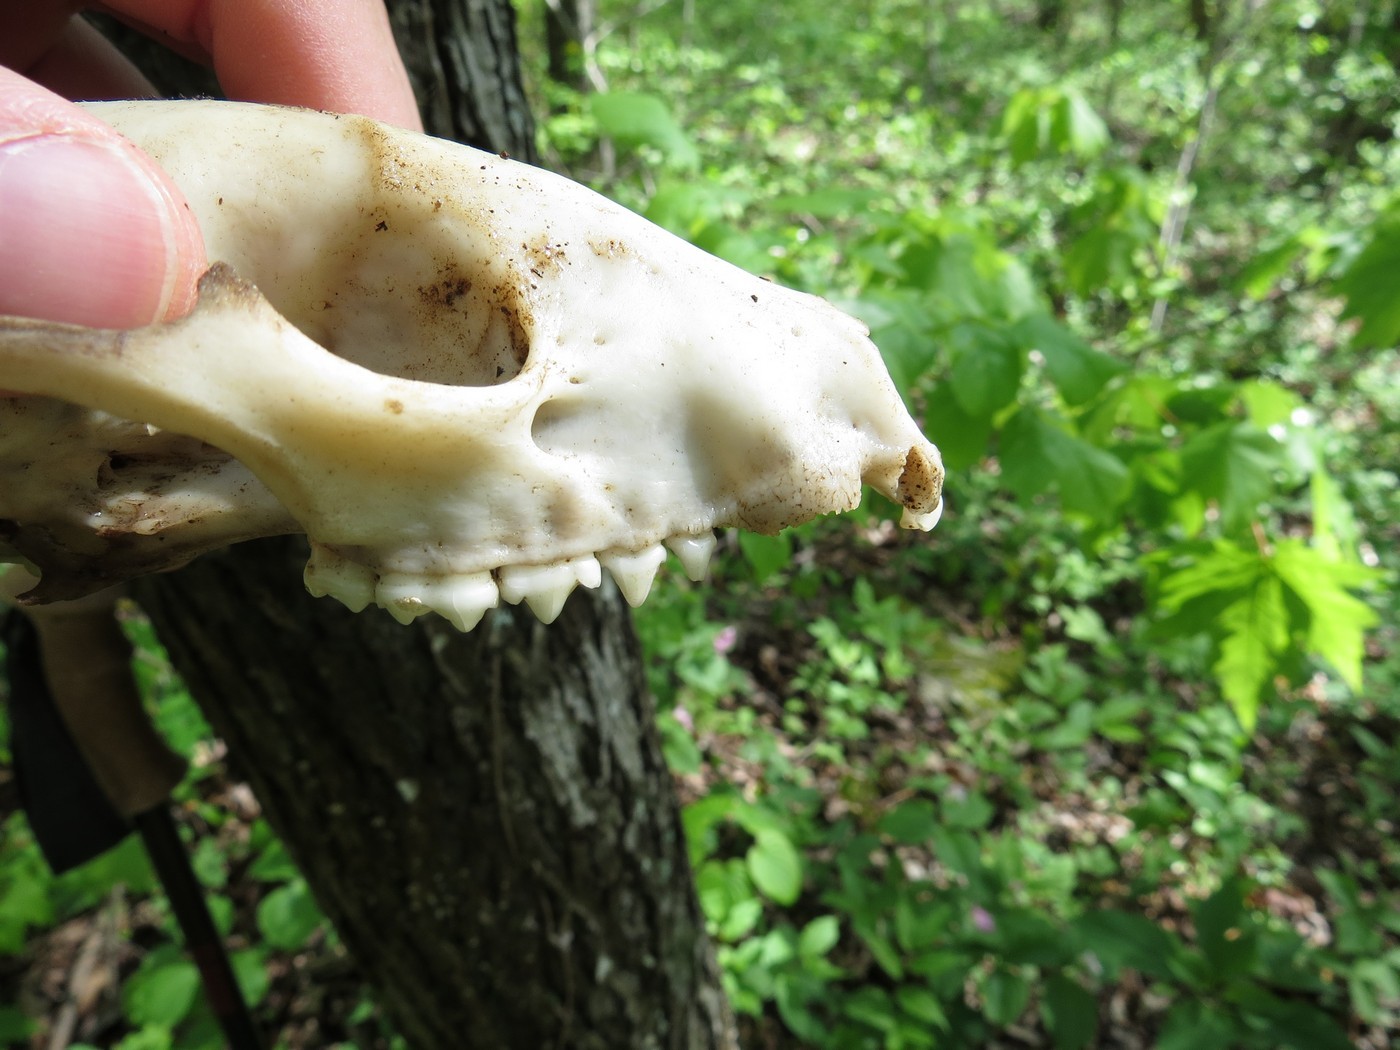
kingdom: Animalia
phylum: Chordata
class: Mammalia
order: Carnivora
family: Procyonidae
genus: Procyon
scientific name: Procyon lotor
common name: Raccoon
